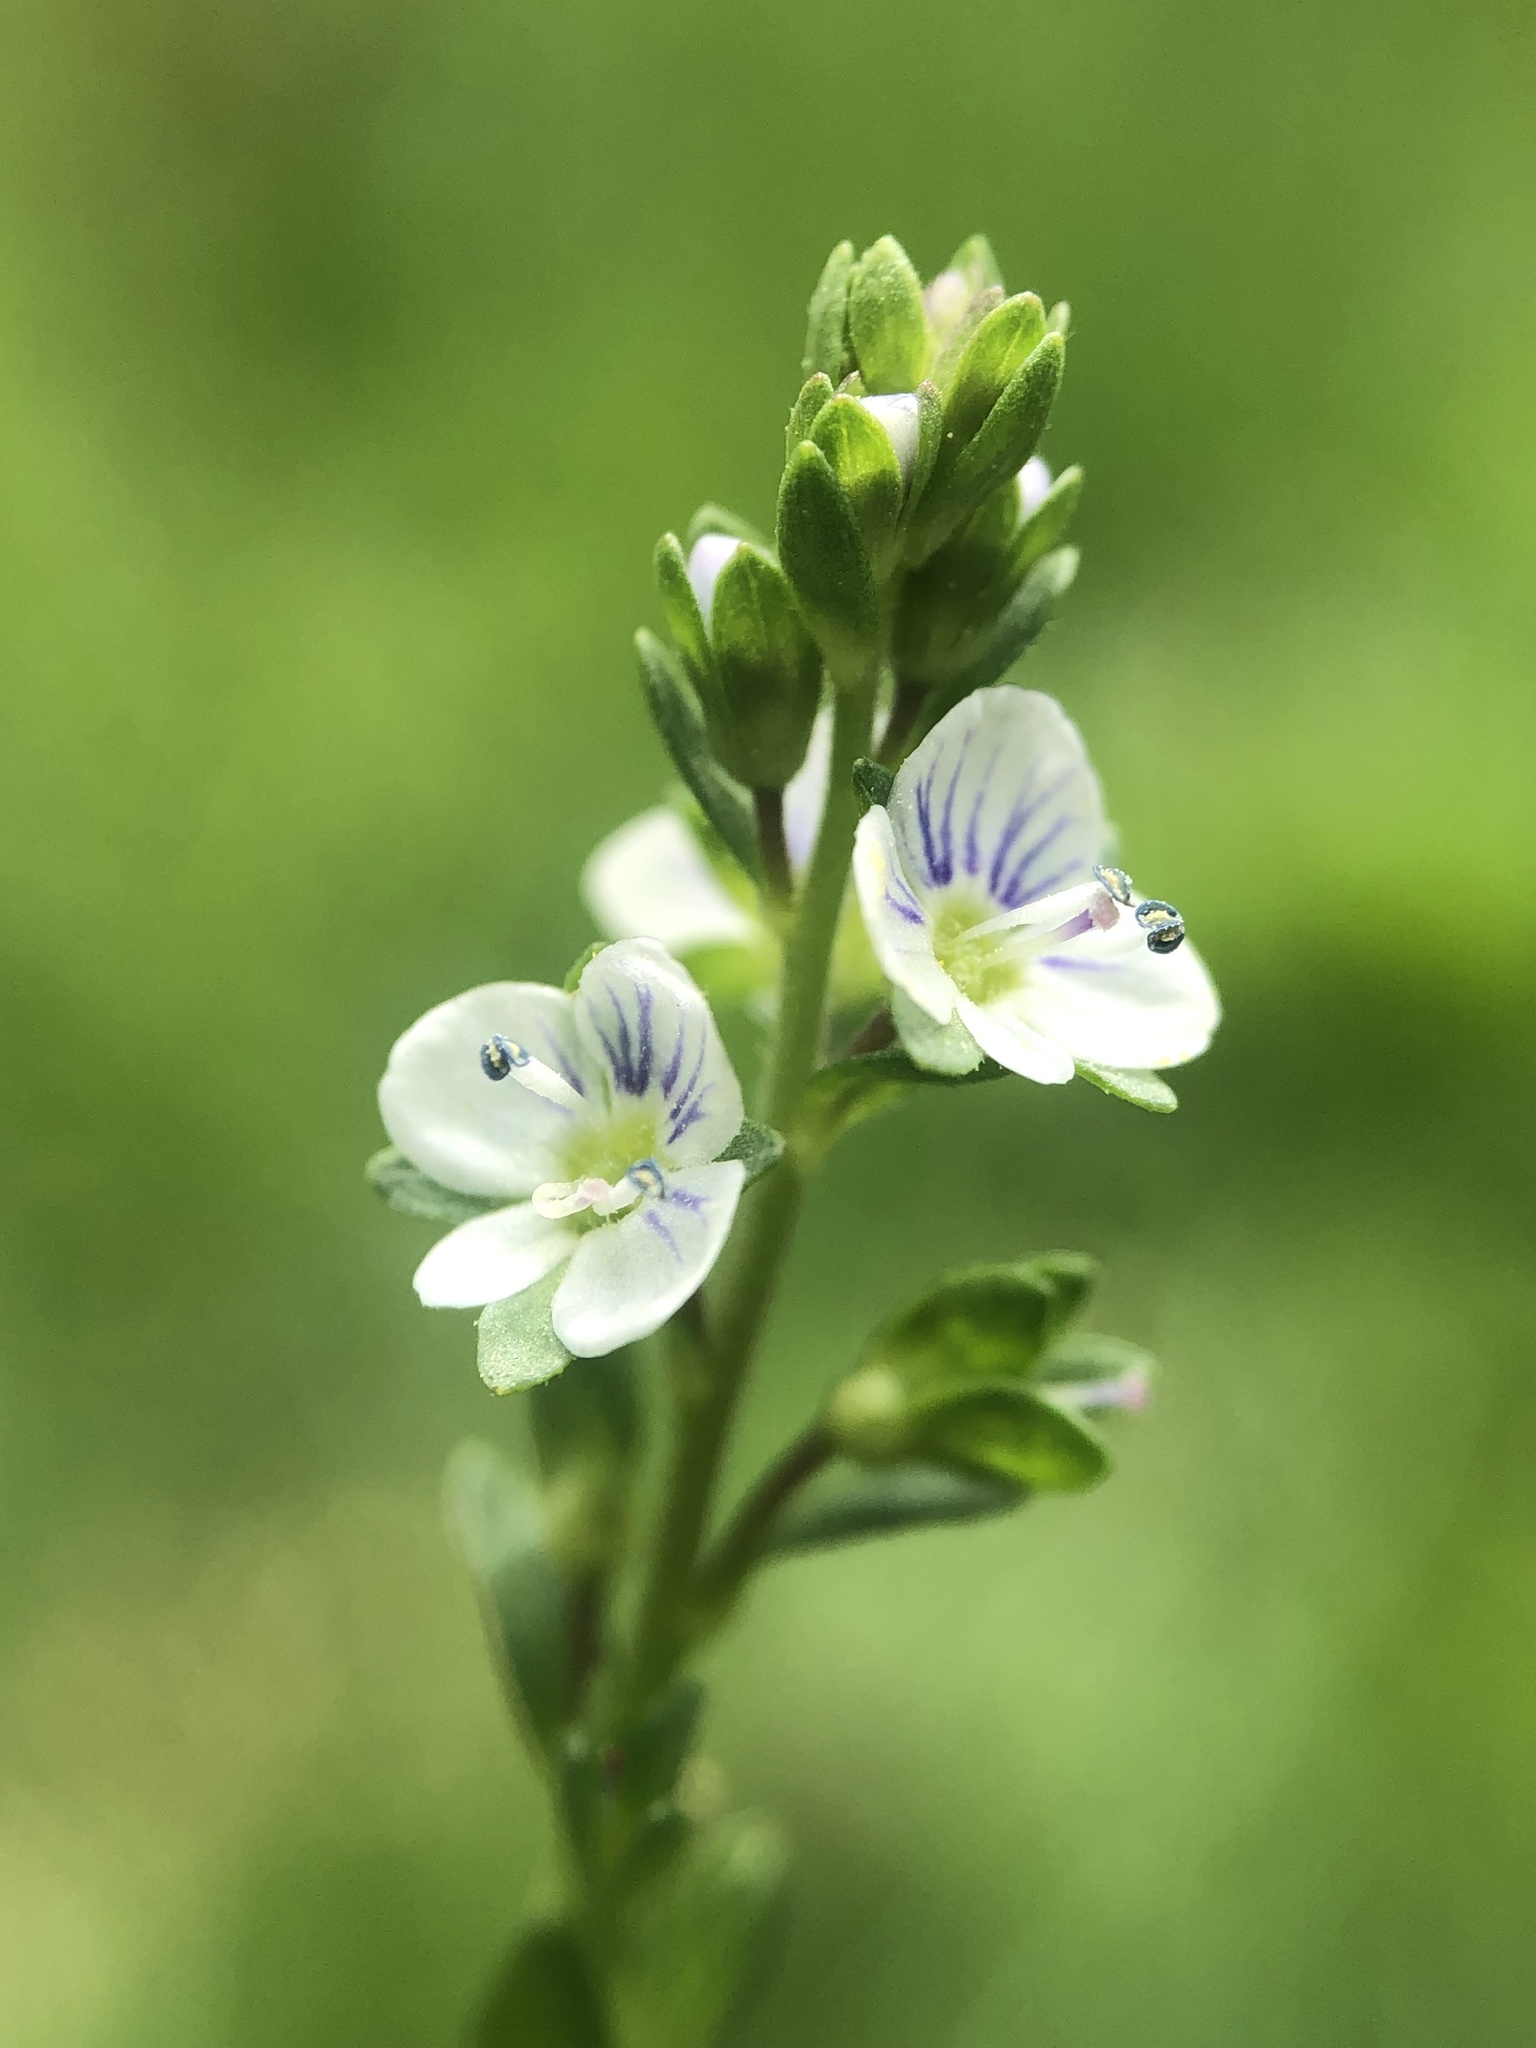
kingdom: Plantae
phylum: Tracheophyta
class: Magnoliopsida
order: Lamiales
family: Plantaginaceae
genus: Veronica
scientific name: Veronica serpyllifolia
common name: Thyme-leaved speedwell
